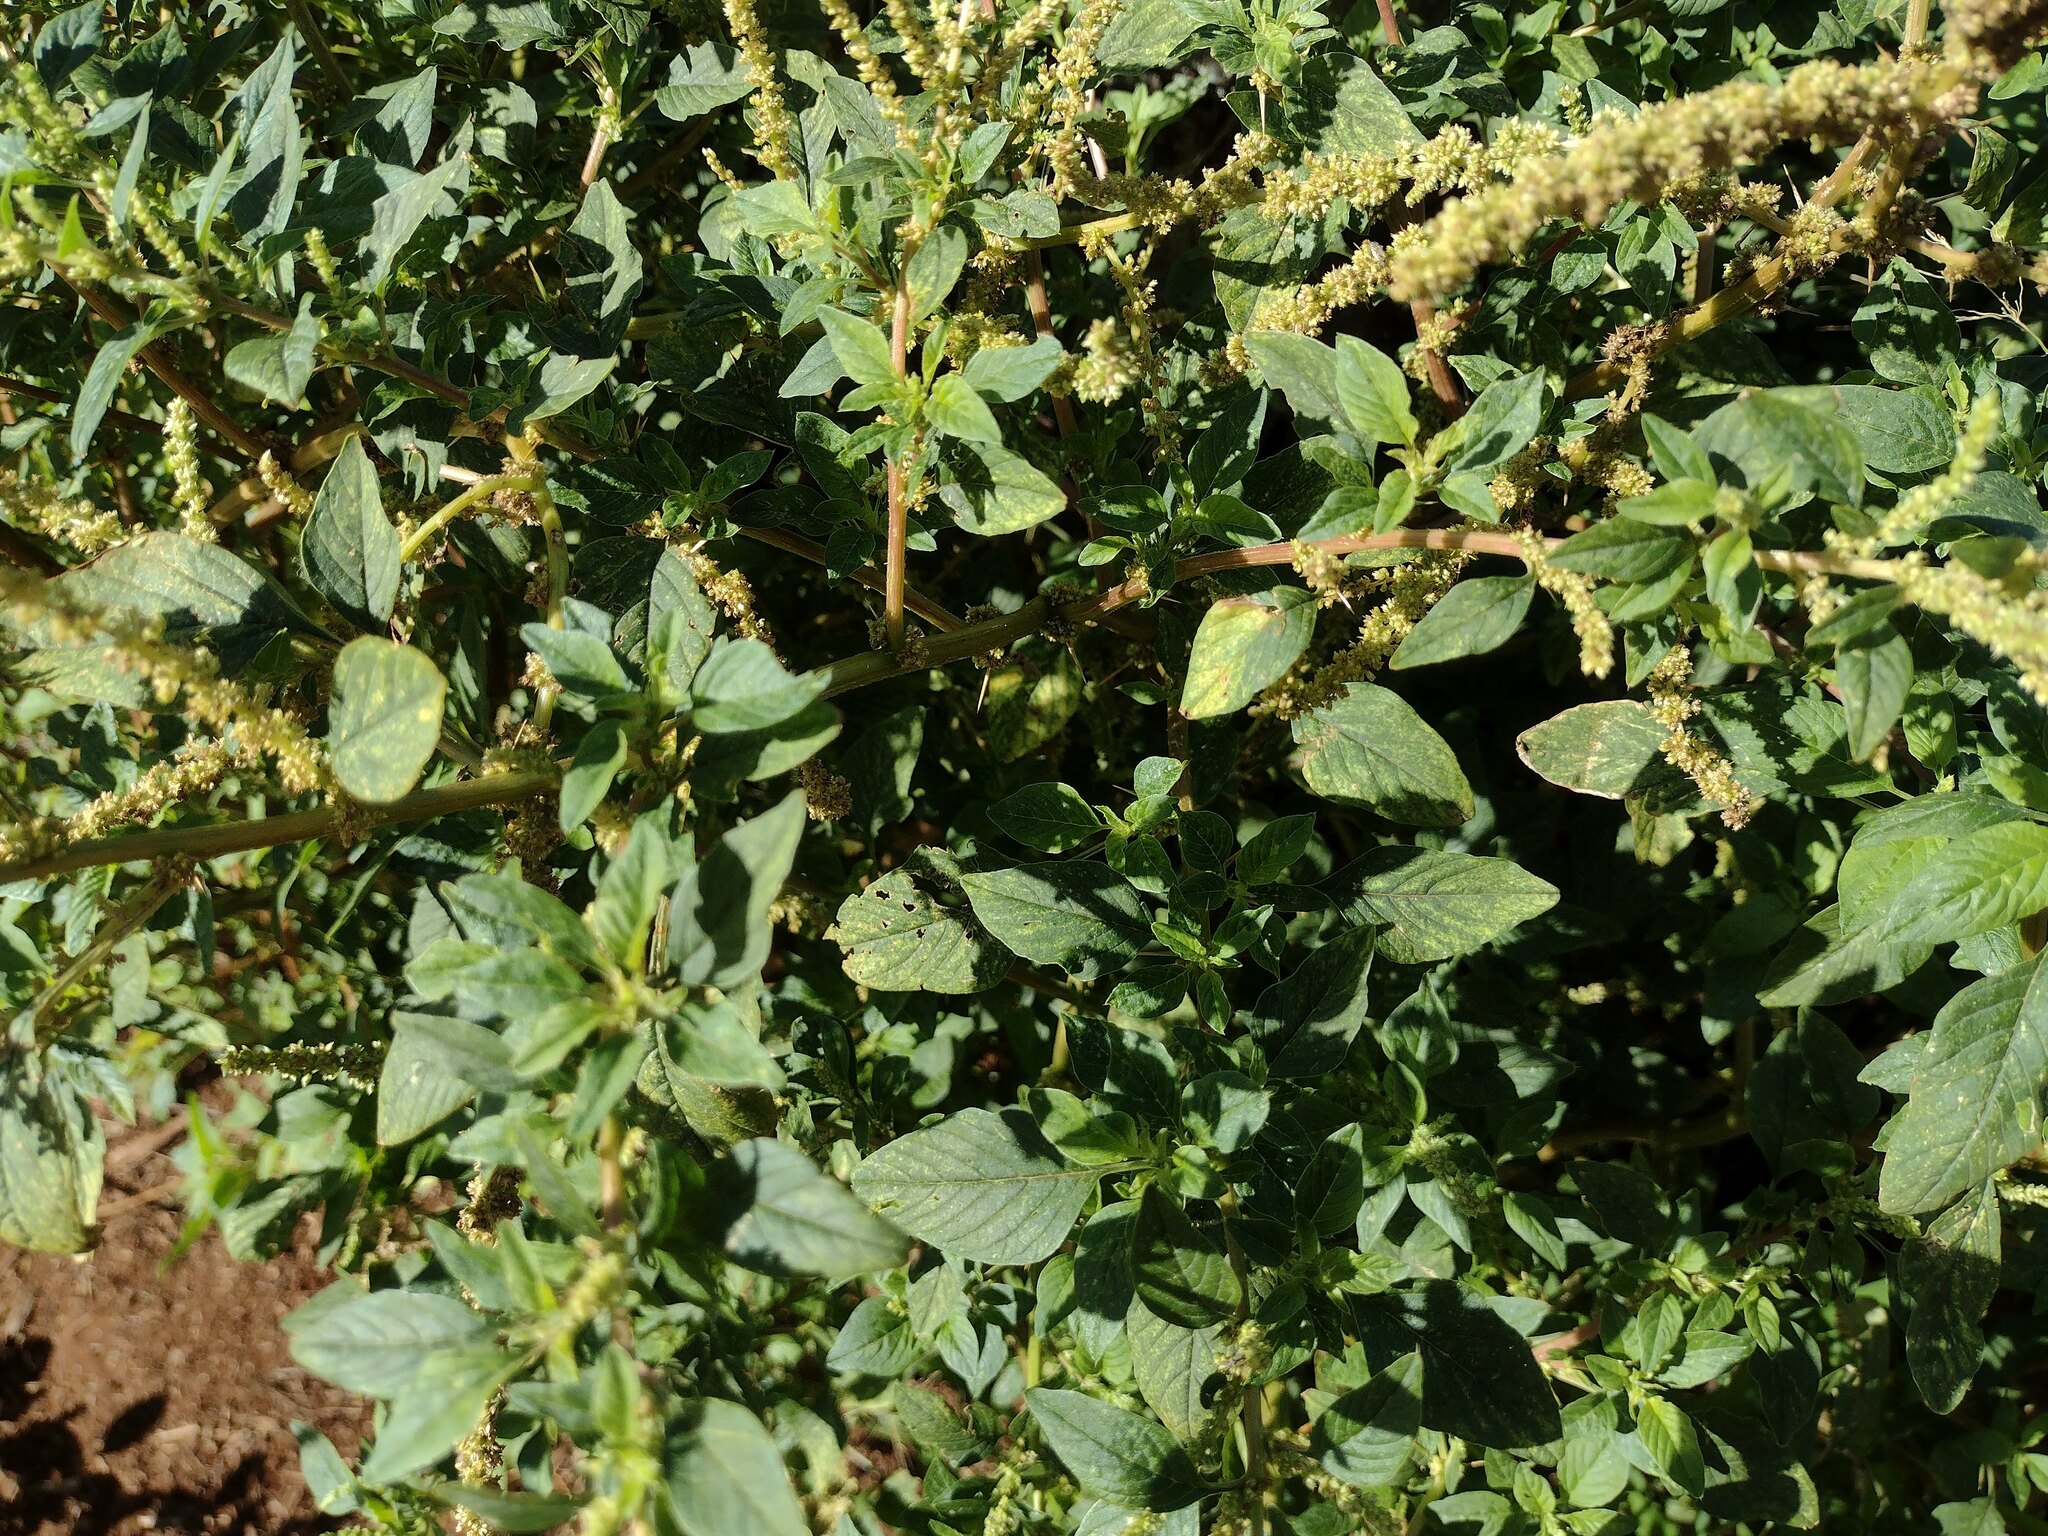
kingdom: Plantae
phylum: Tracheophyta
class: Magnoliopsida
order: Caryophyllales
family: Amaranthaceae
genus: Amaranthus
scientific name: Amaranthus spinosus
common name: Spiny amaranth
